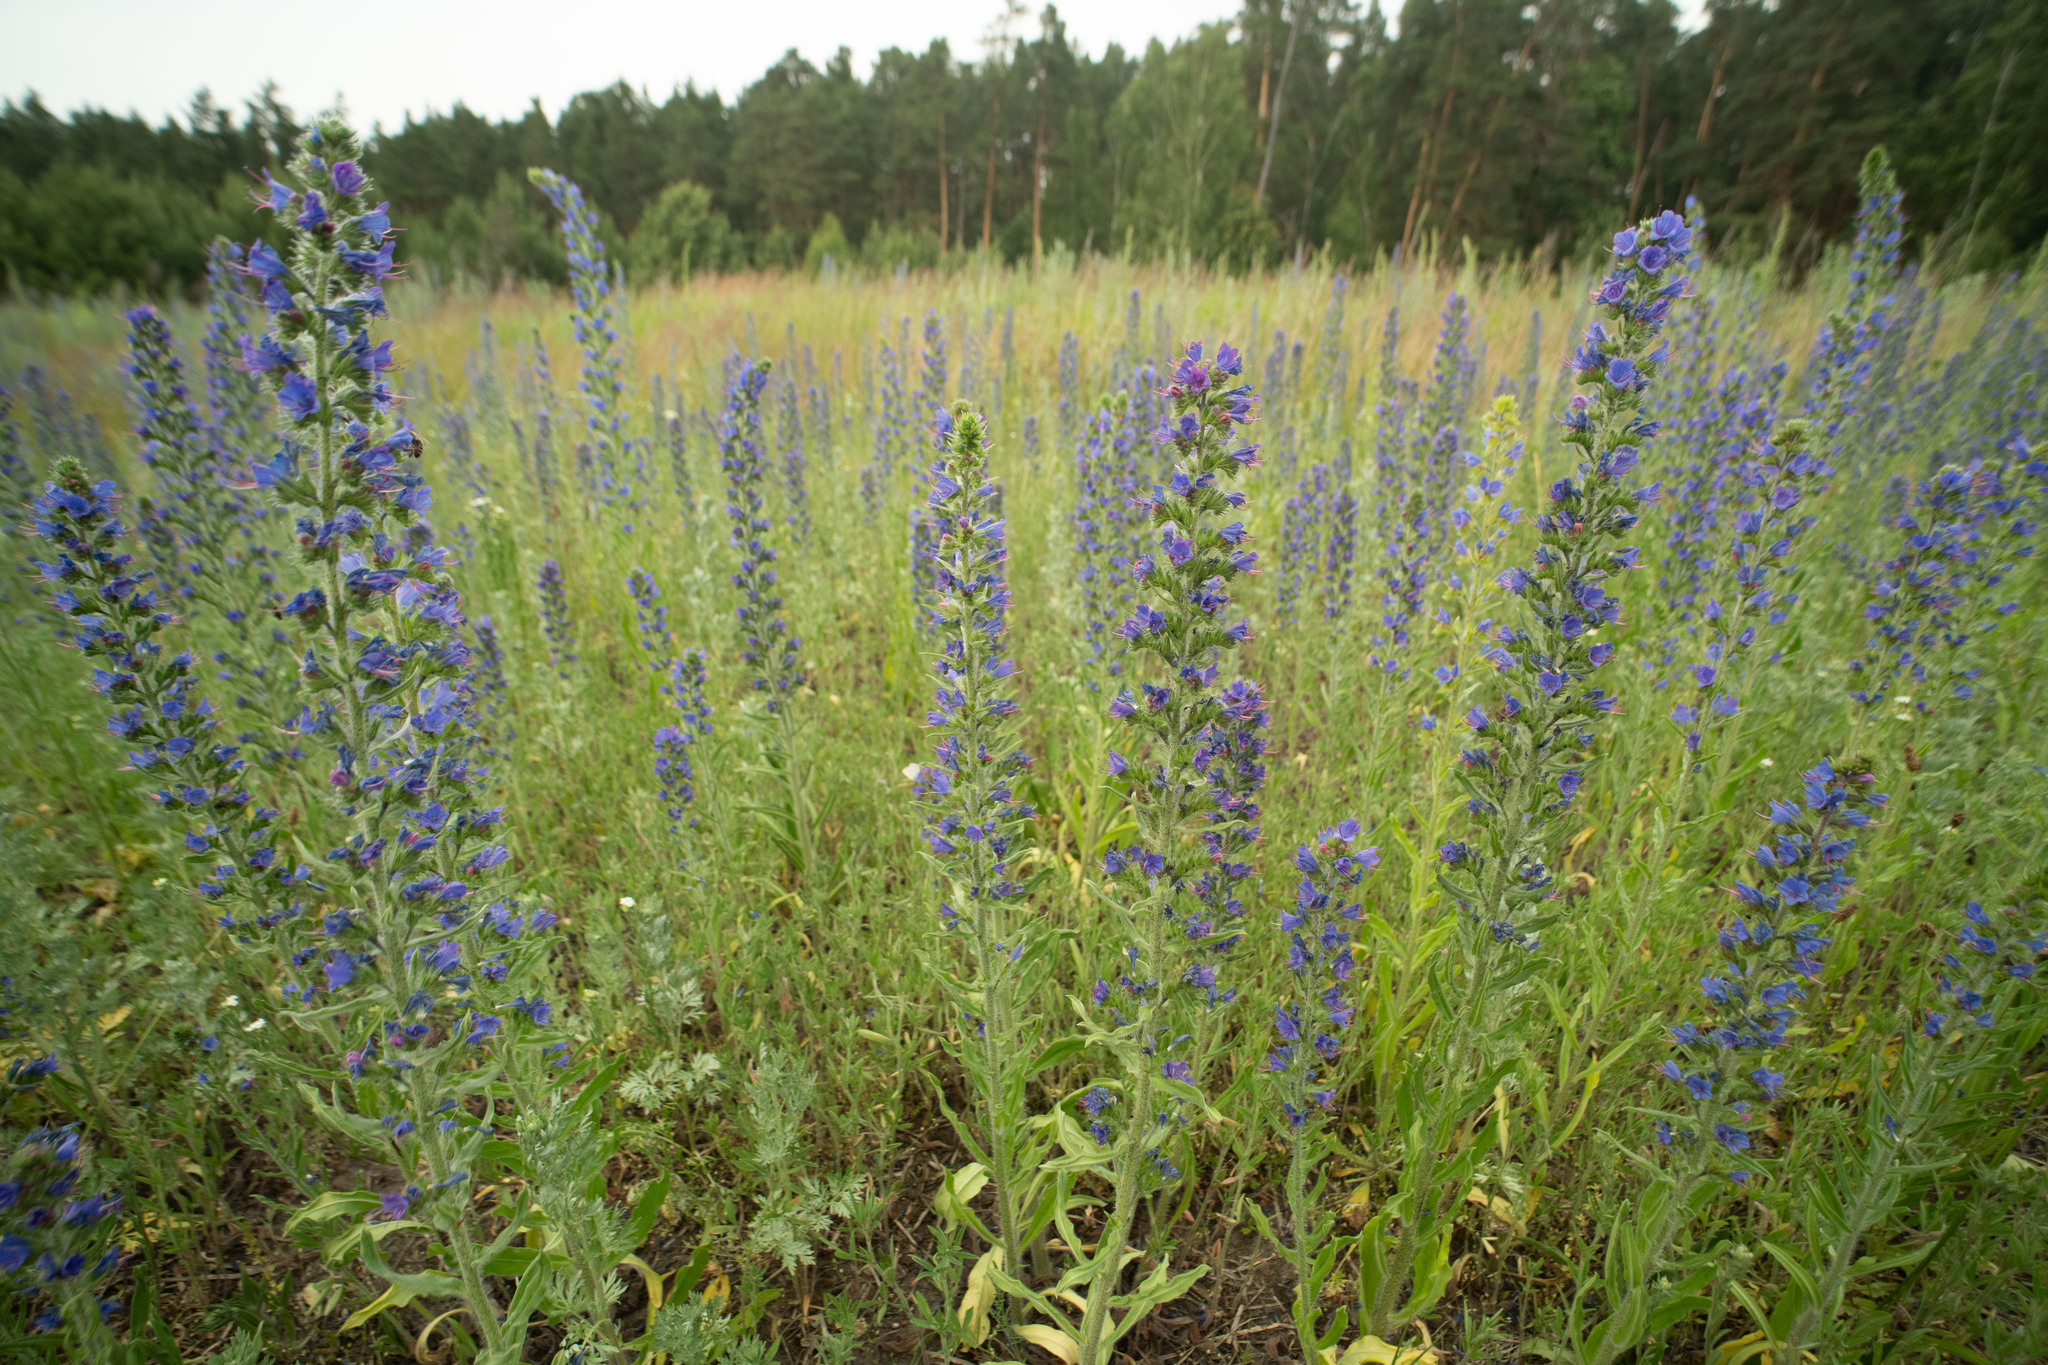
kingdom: Plantae
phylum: Tracheophyta
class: Magnoliopsida
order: Boraginales
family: Boraginaceae
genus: Echium
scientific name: Echium vulgare
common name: Common viper's bugloss
